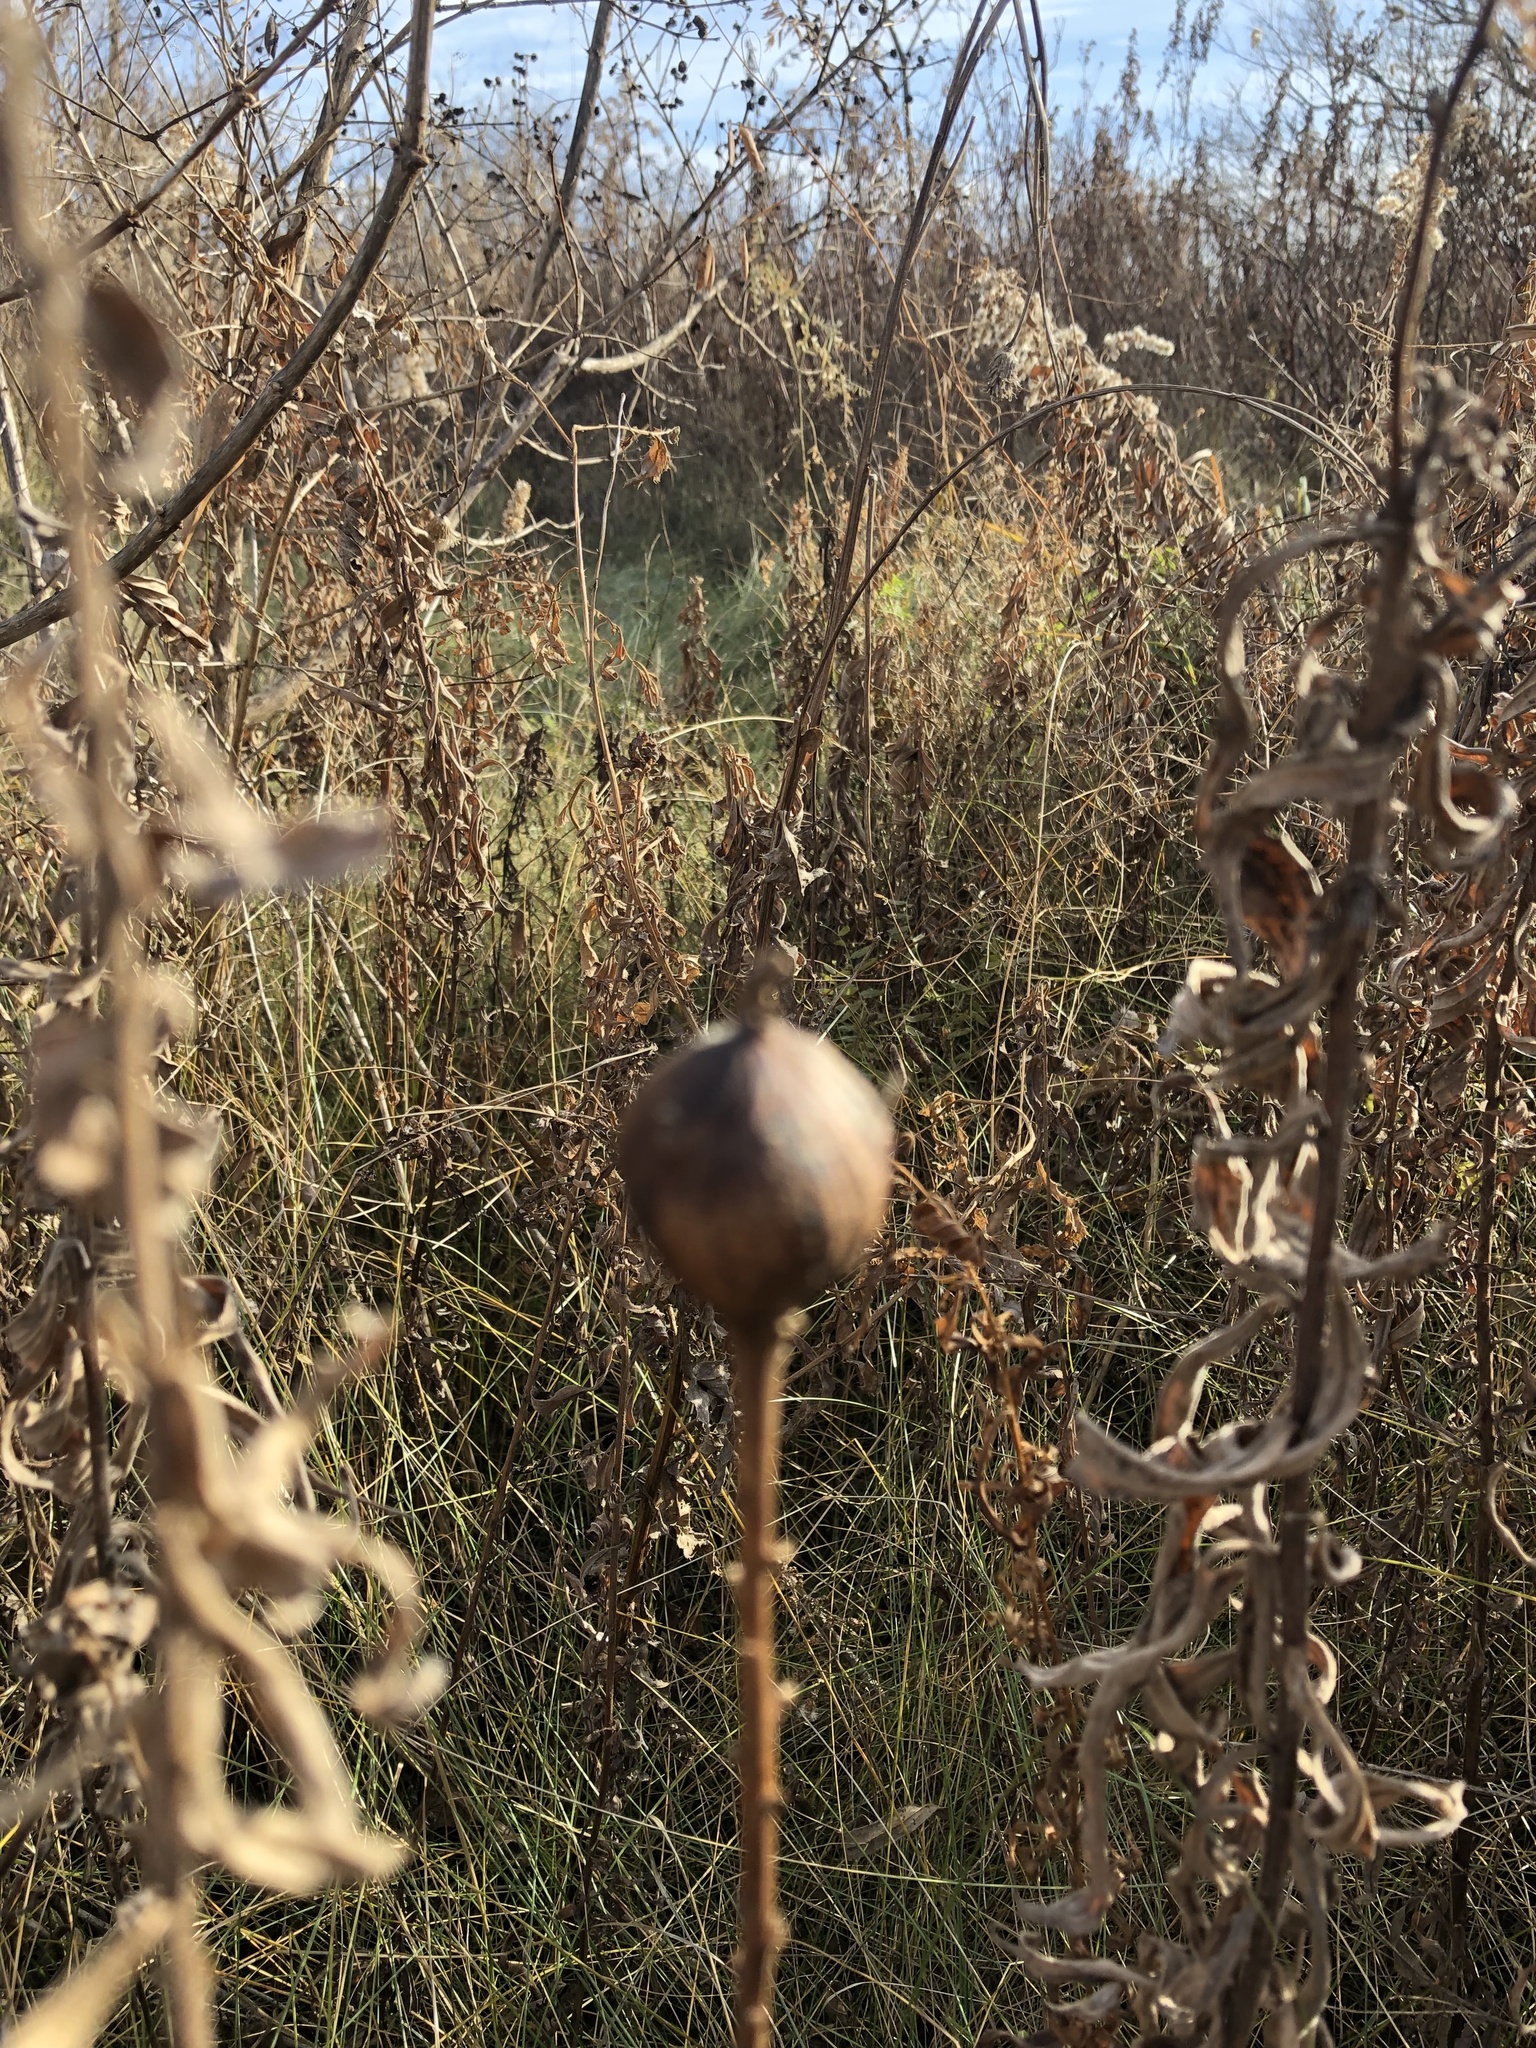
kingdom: Animalia
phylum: Arthropoda
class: Insecta
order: Diptera
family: Tephritidae
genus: Eurosta
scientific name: Eurosta solidaginis
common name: Goldenrod gall fly
